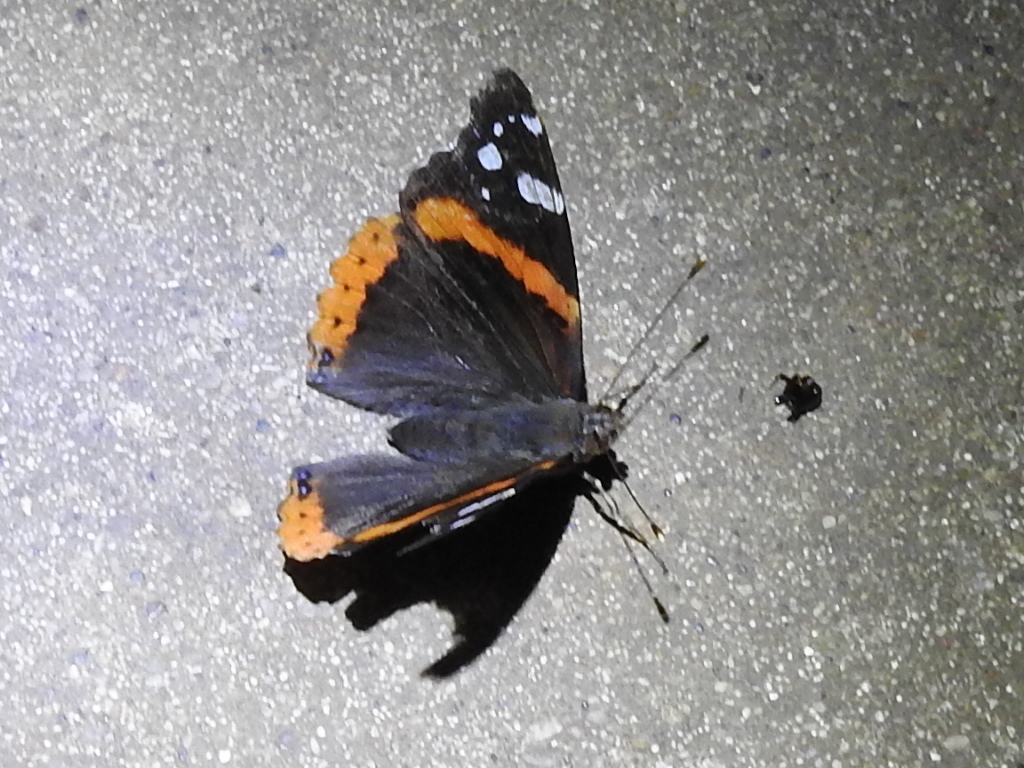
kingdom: Animalia
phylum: Arthropoda
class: Insecta
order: Lepidoptera
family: Nymphalidae
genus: Vanessa
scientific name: Vanessa atalanta
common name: Red admiral
